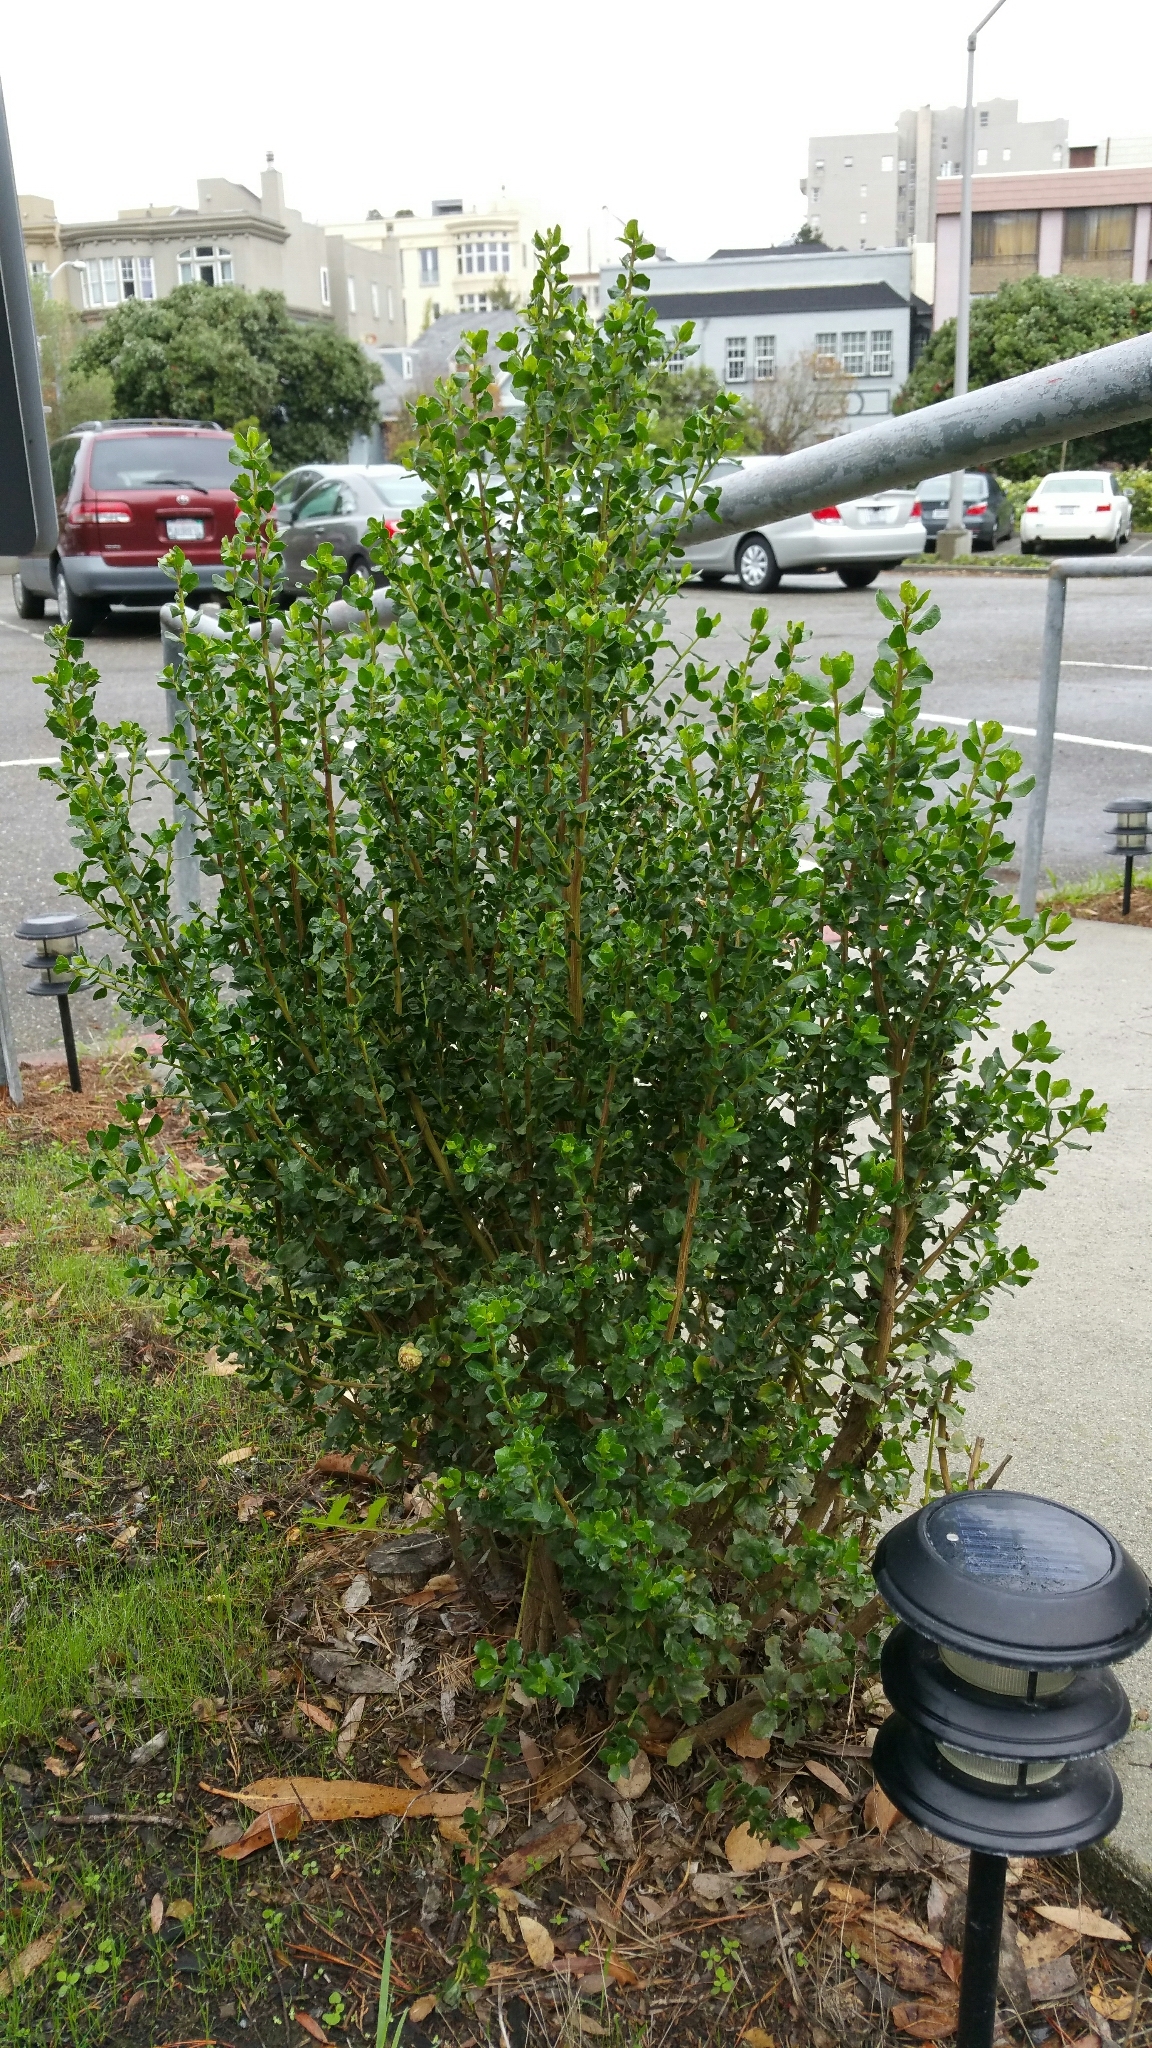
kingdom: Plantae
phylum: Tracheophyta
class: Magnoliopsida
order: Asterales
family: Asteraceae
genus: Baccharis
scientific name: Baccharis pilularis
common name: Coyotebrush
